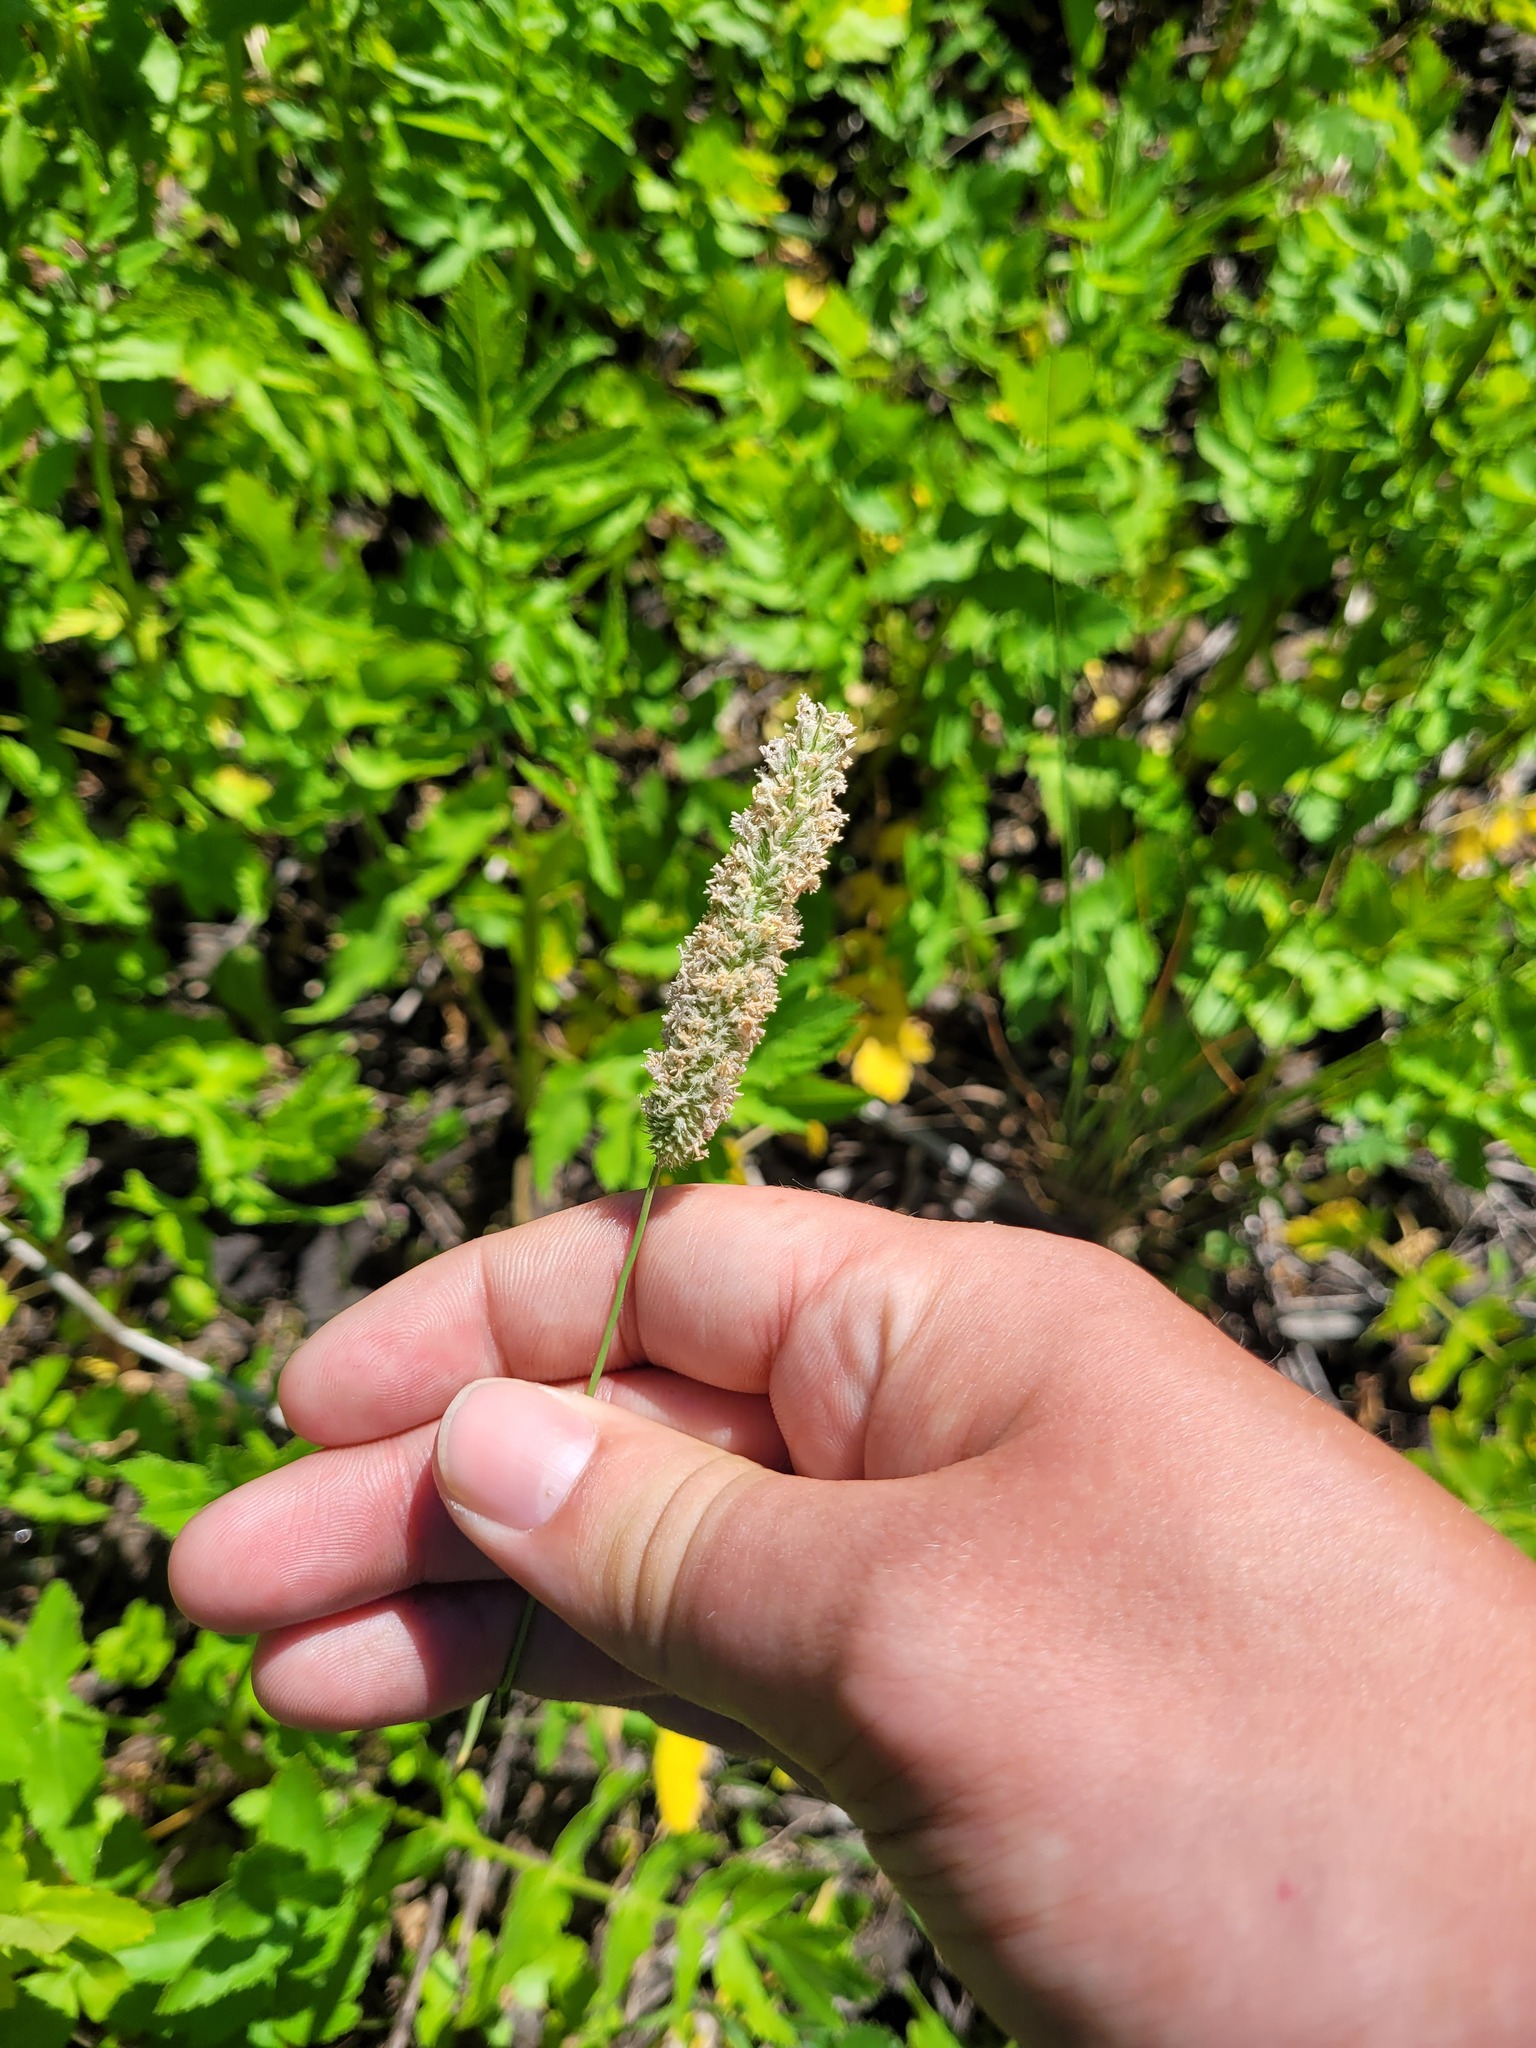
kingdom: Plantae
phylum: Tracheophyta
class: Liliopsida
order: Poales
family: Poaceae
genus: Phleum
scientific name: Phleum pratense
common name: Timothy grass
